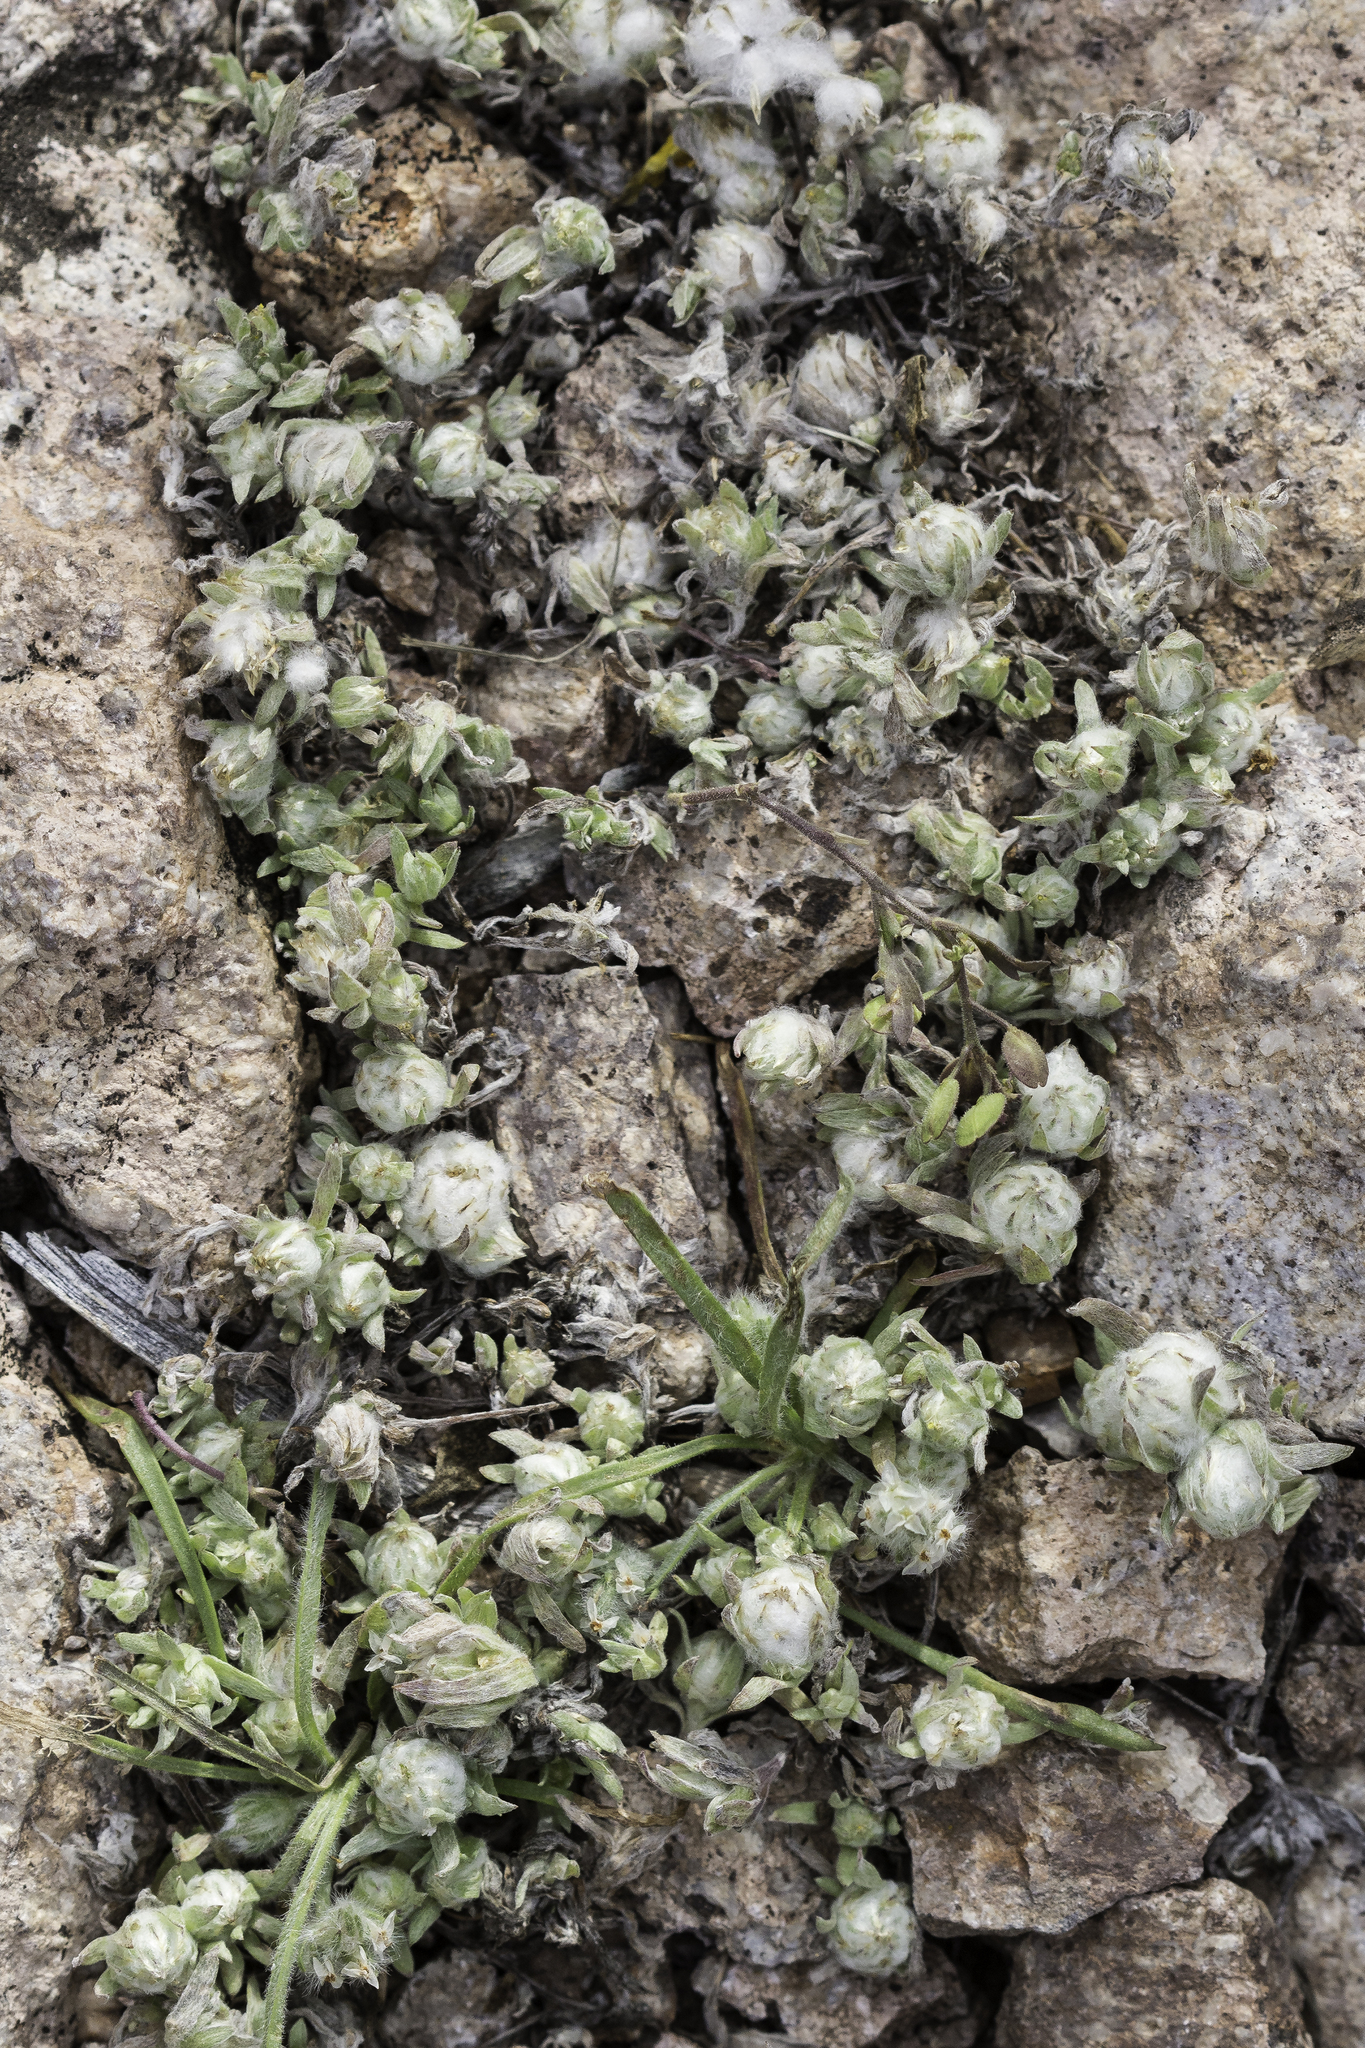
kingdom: Plantae
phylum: Tracheophyta
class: Magnoliopsida
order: Asterales
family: Asteraceae
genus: Stylocline
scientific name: Stylocline micropoides
